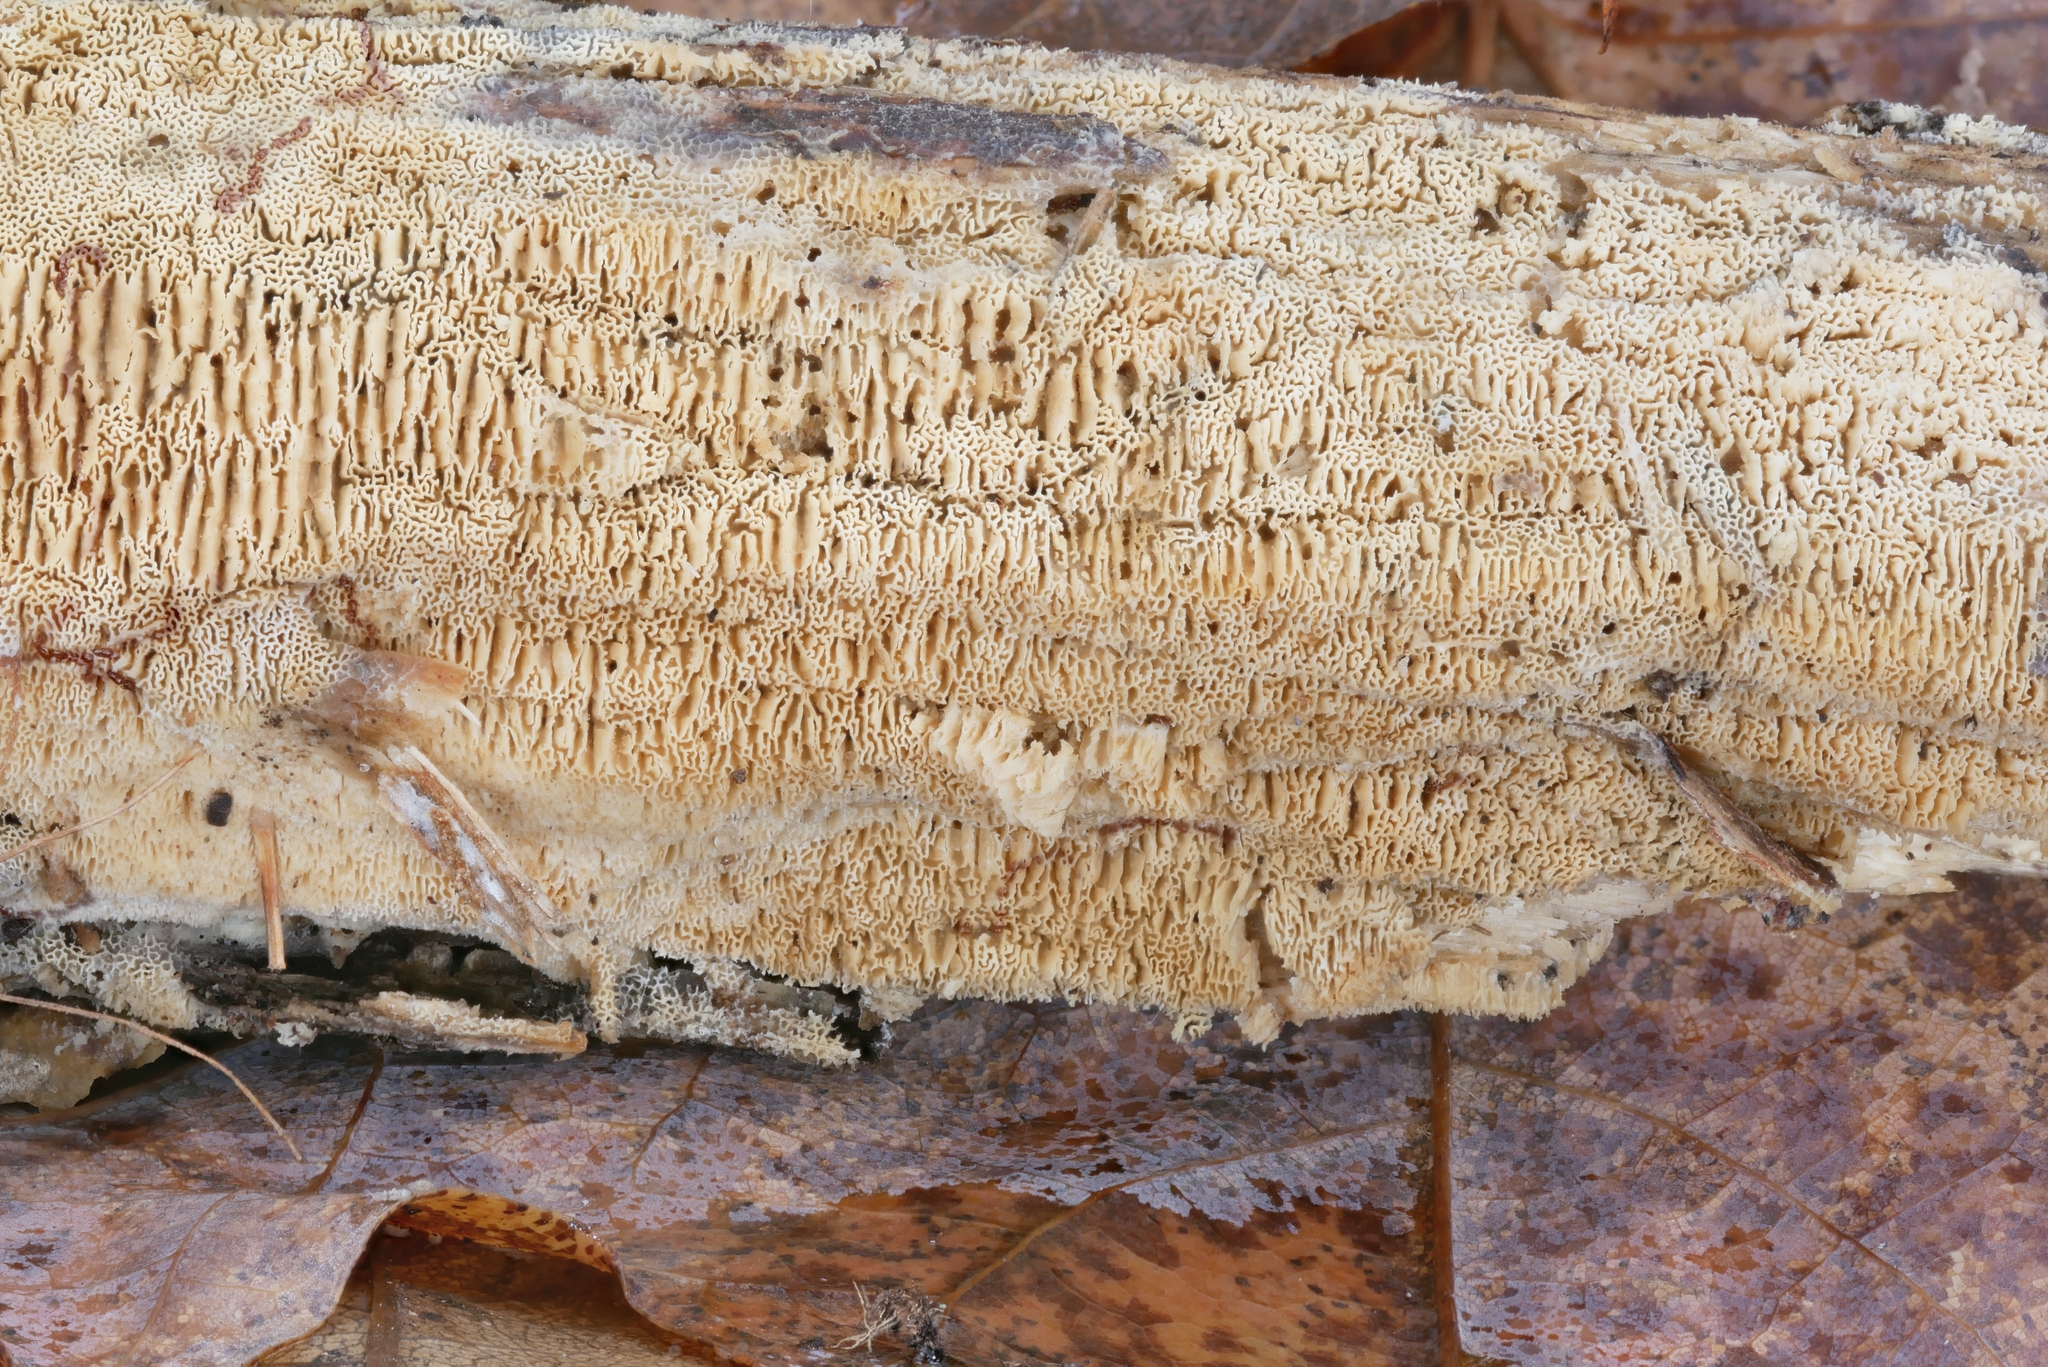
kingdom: Fungi
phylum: Basidiomycota
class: Agaricomycetes
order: Hymenochaetales
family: Schizoporaceae
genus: Xylodon
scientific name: Xylodon ovisporus
